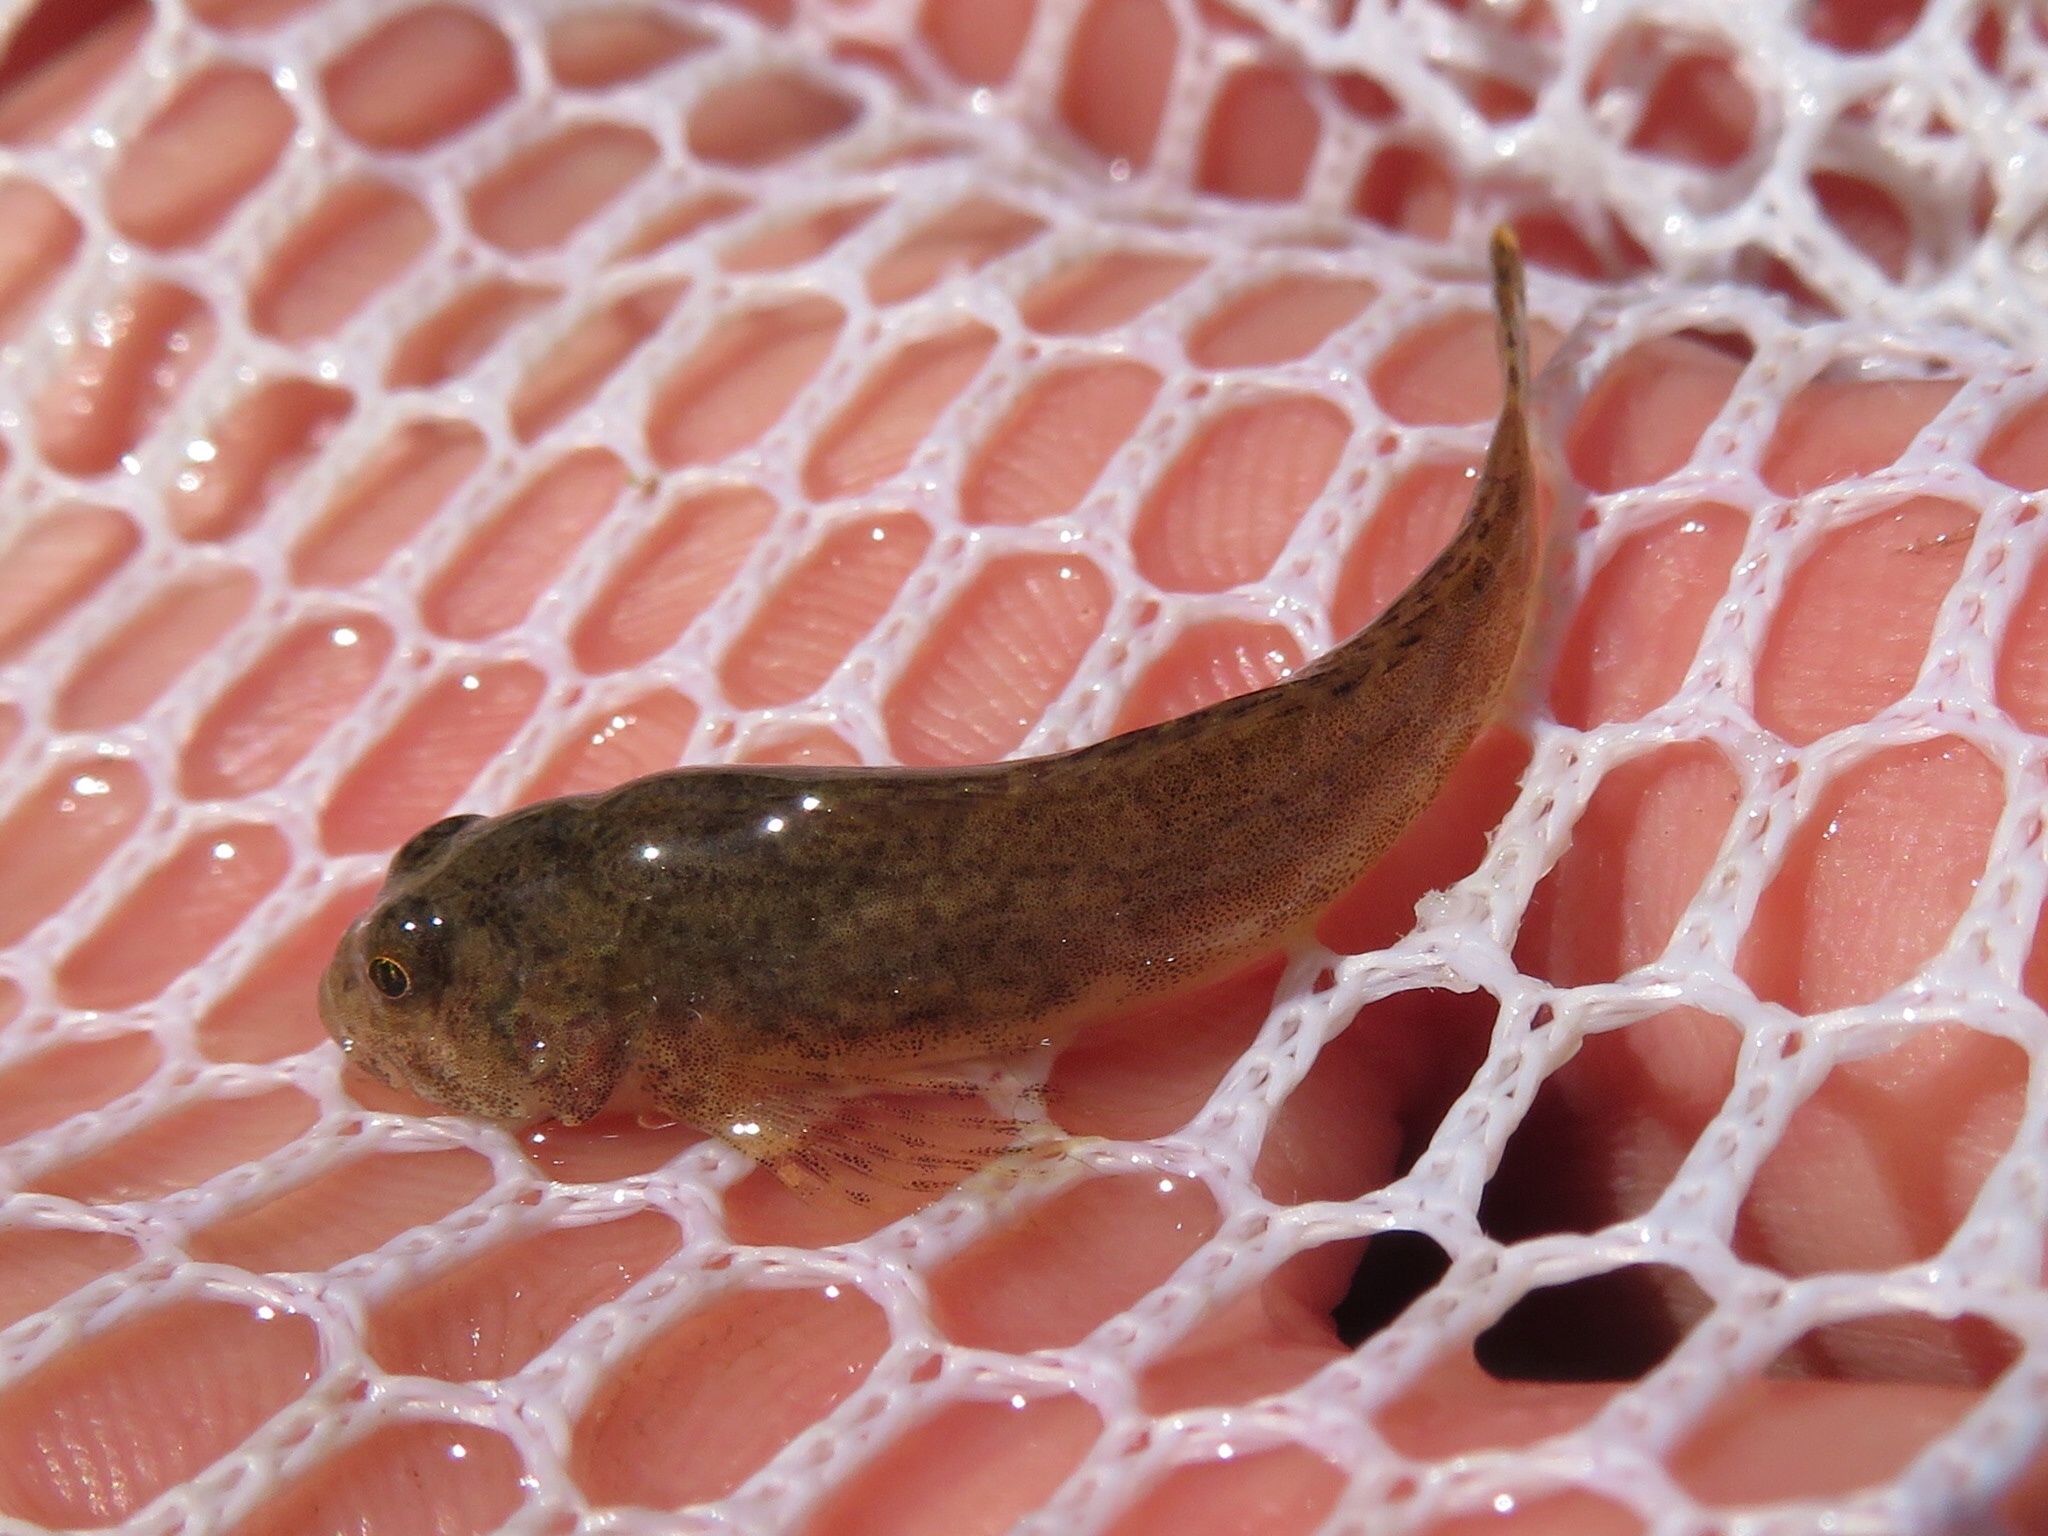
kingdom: Animalia
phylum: Chordata
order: Scorpaeniformes
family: Cottidae
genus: Cottus
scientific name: Cottus cognatus
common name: Slimy sculpin
